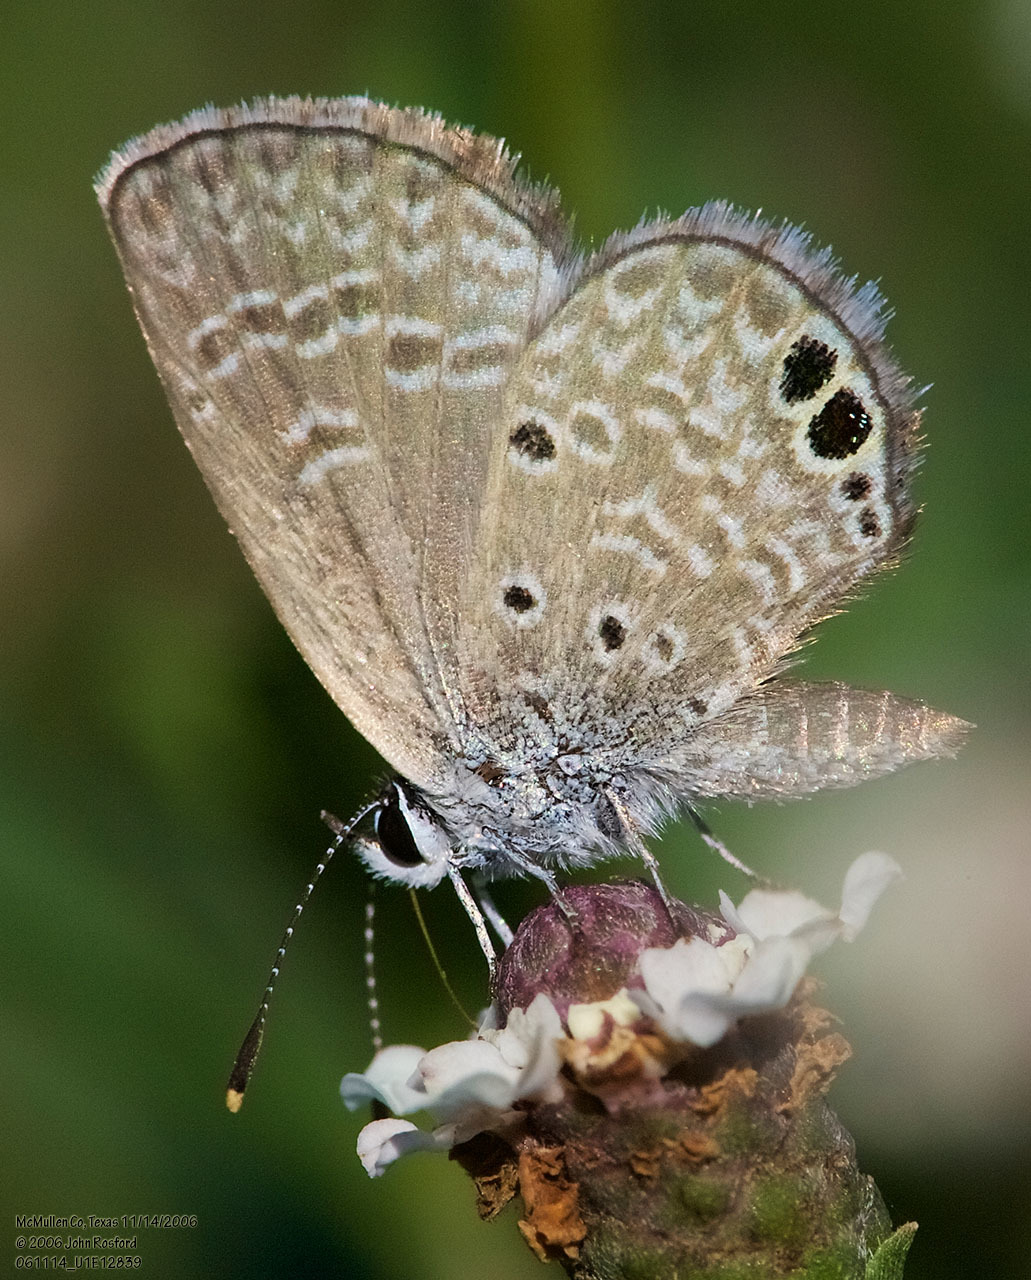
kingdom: Animalia
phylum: Arthropoda
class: Insecta
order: Lepidoptera
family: Lycaenidae
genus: Hemiargus
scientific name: Hemiargus ceraunus
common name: Ceraunus blue
